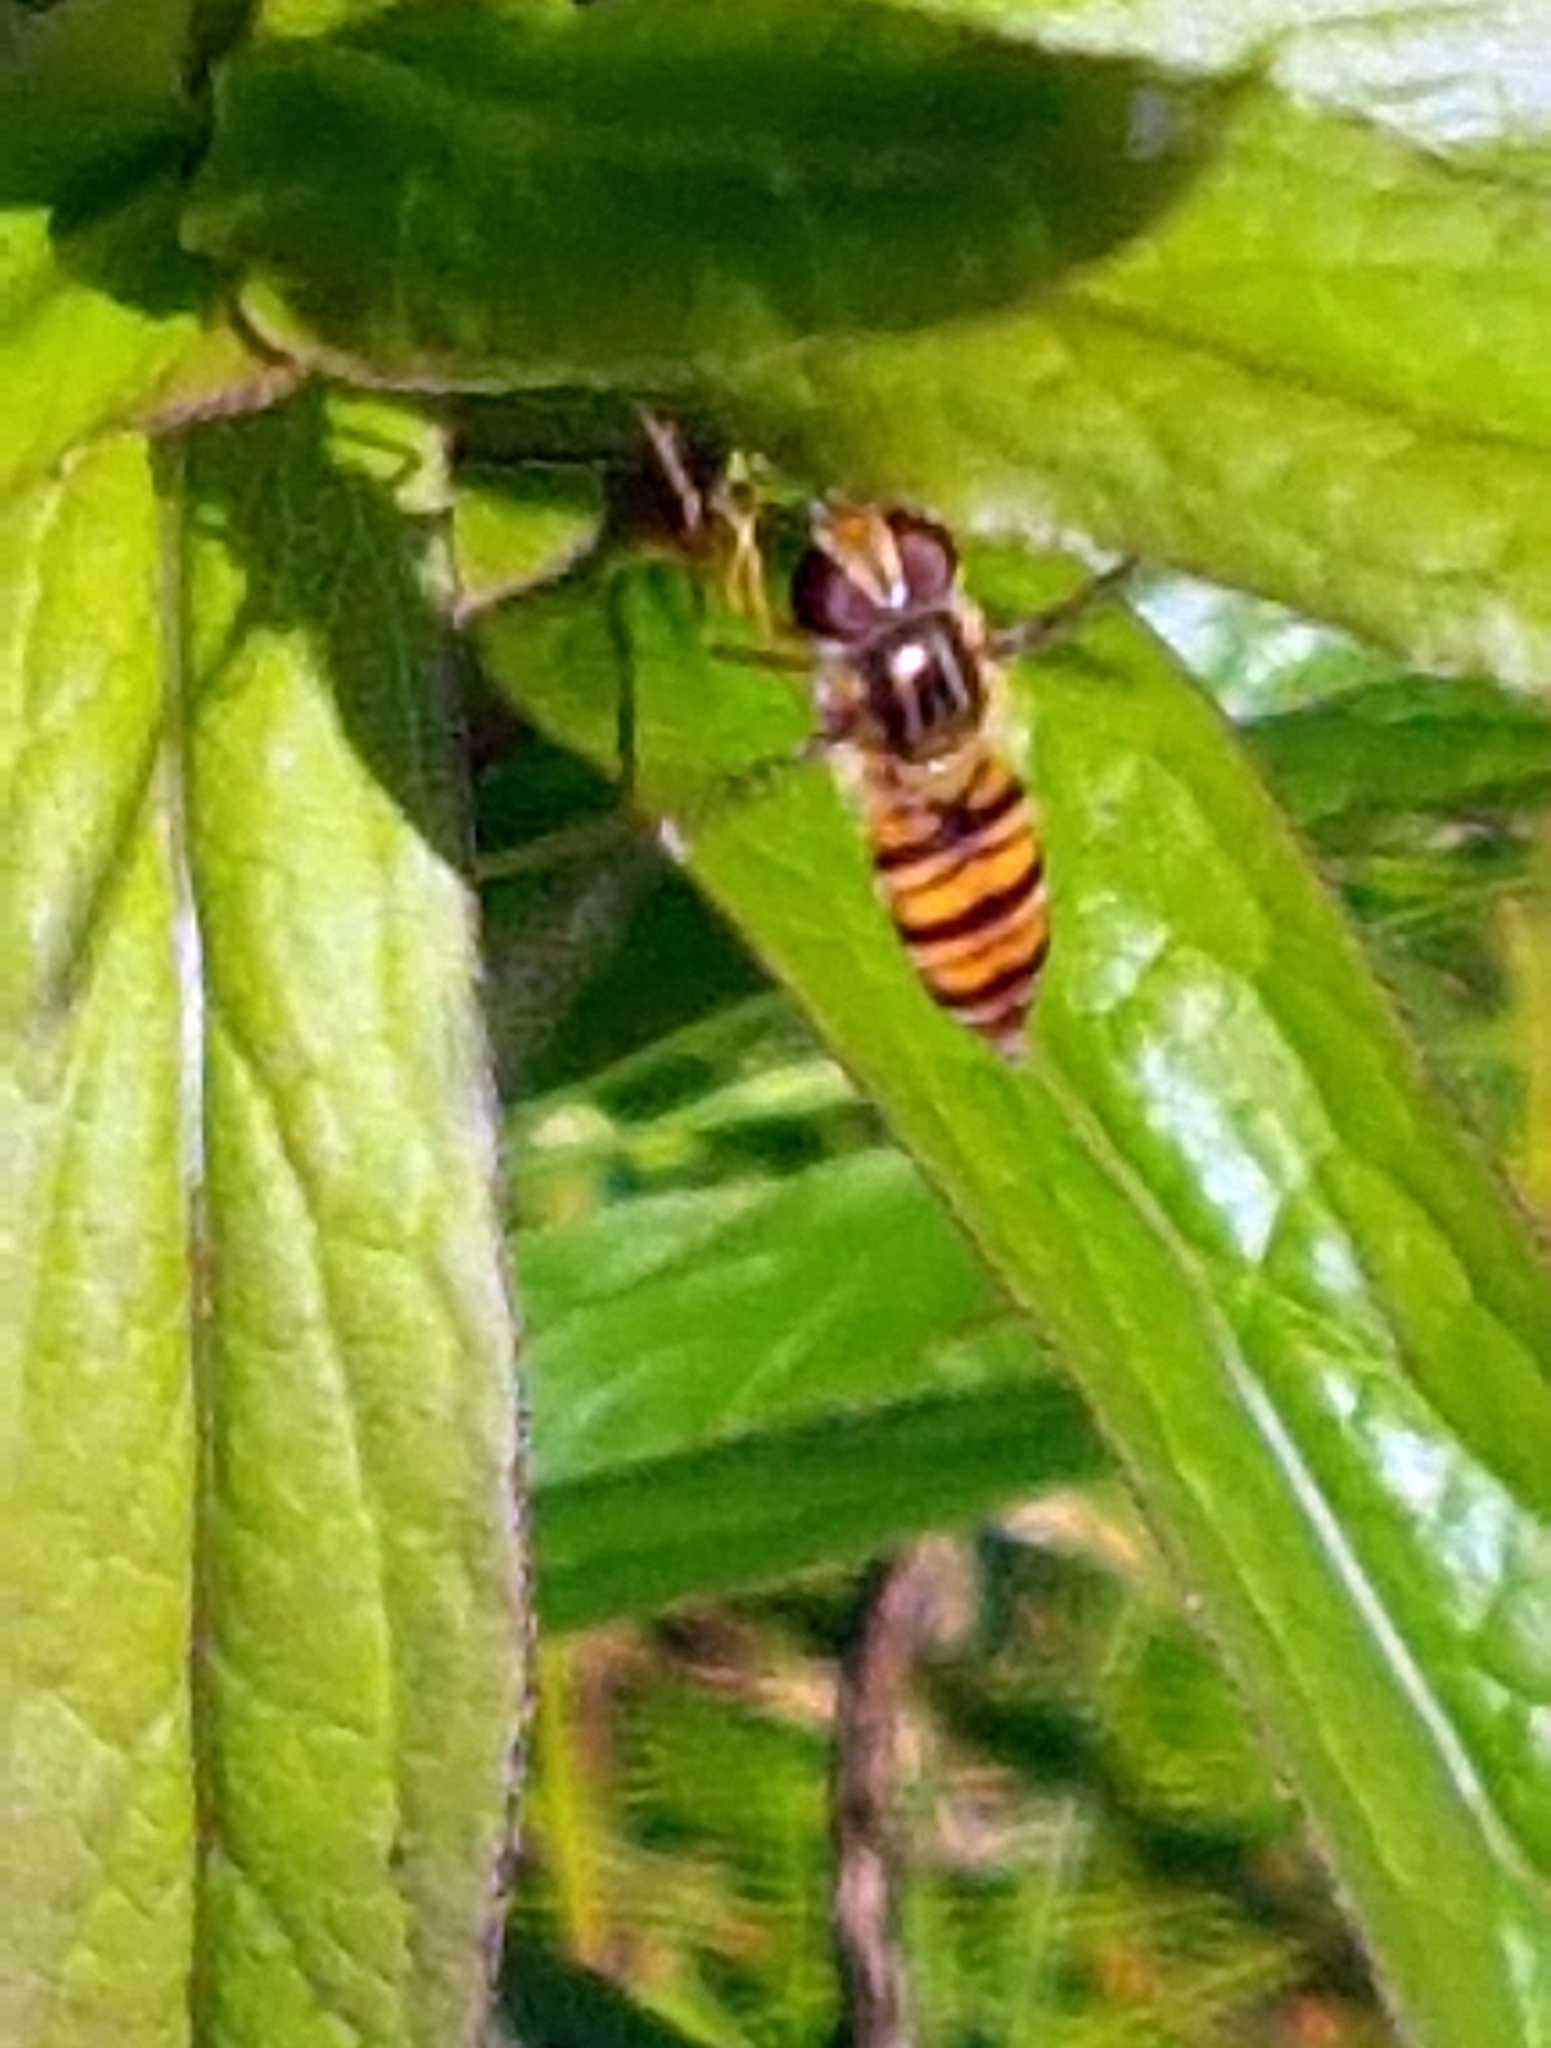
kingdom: Animalia
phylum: Arthropoda
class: Insecta
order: Diptera
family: Syrphidae
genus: Episyrphus
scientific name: Episyrphus balteatus
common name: Marmalade hoverfly
